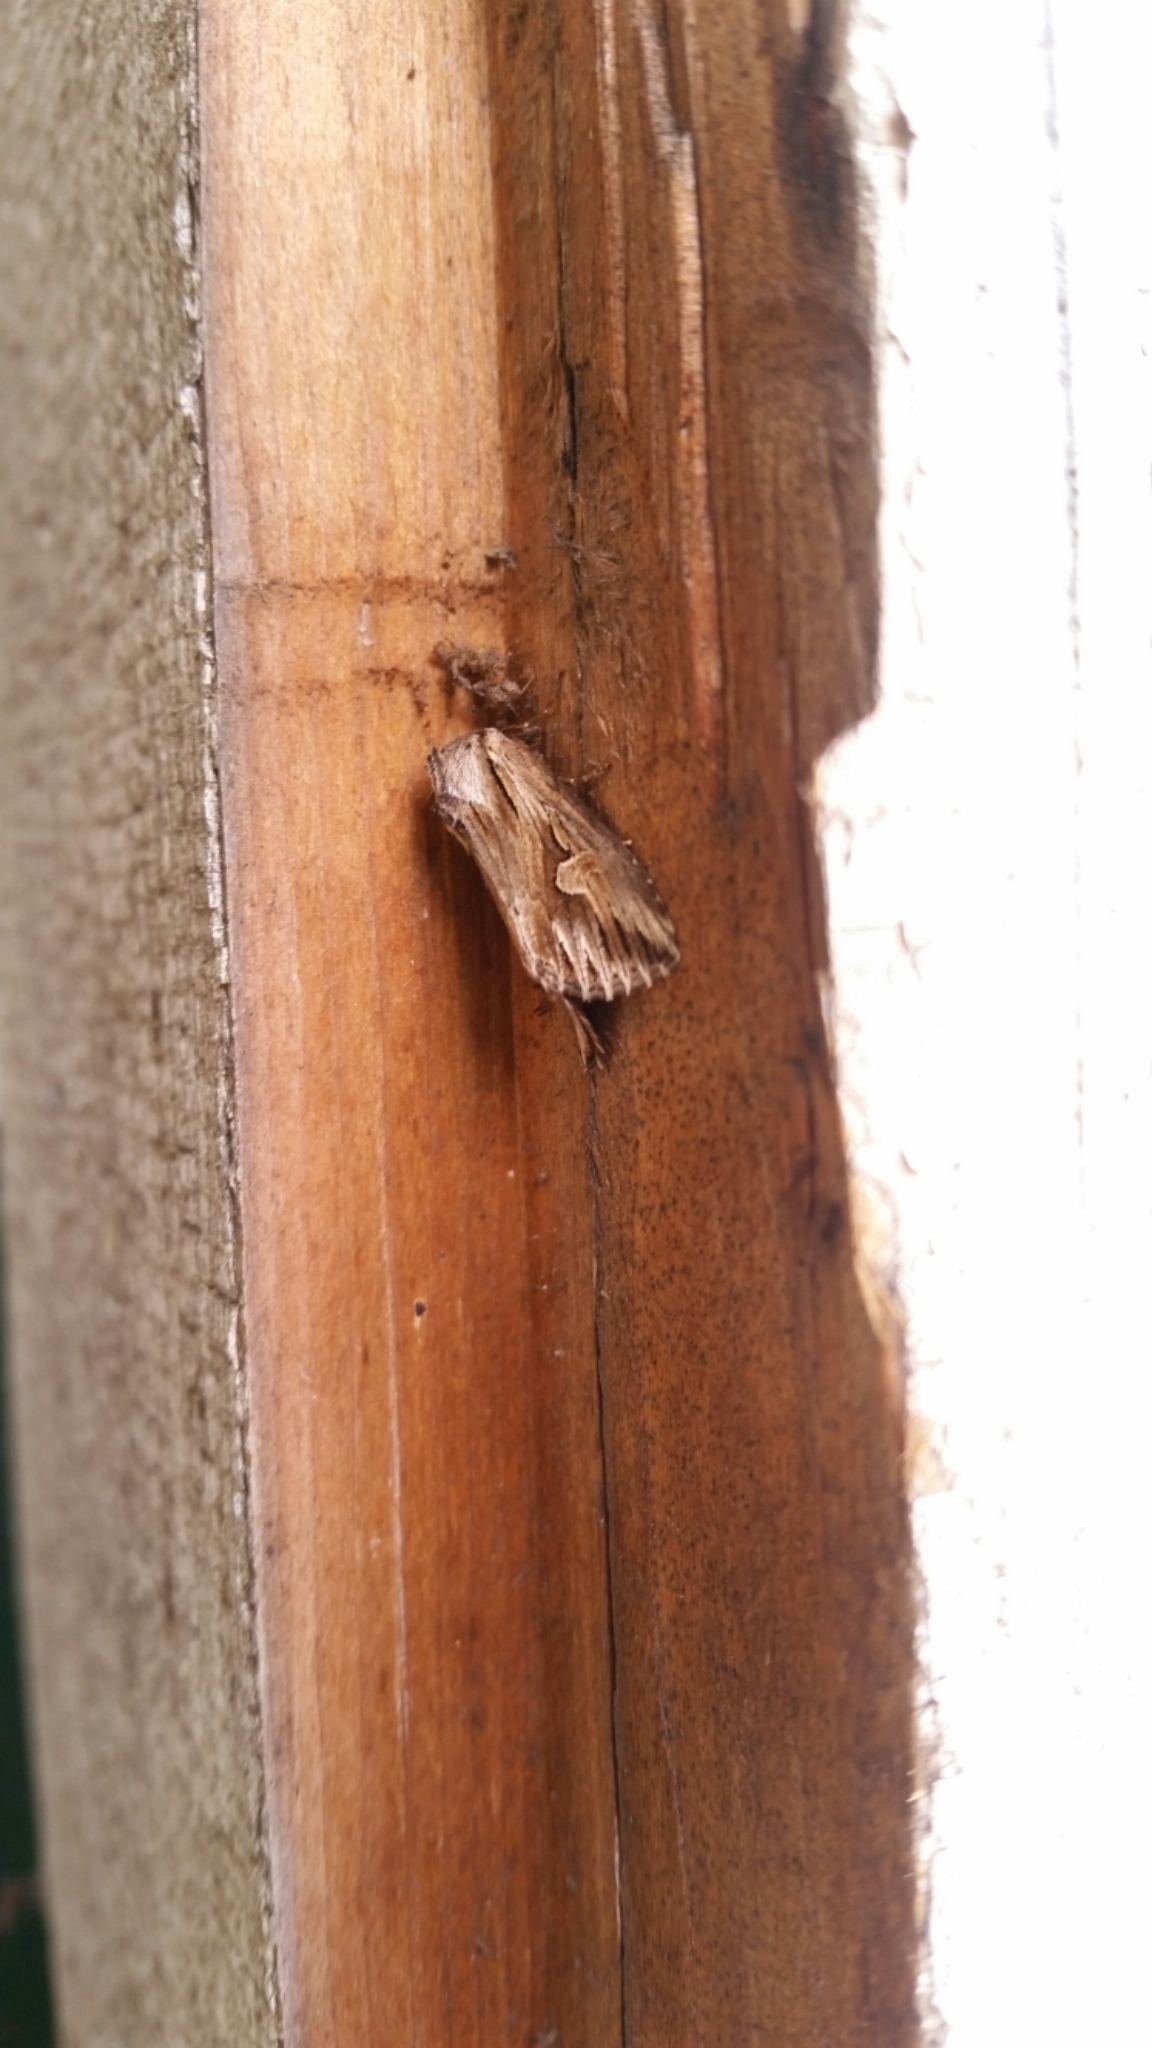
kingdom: Animalia
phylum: Arthropoda
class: Insecta
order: Lepidoptera
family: Noctuidae
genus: Nedra
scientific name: Nedra ramosula
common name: Gray half-spot
